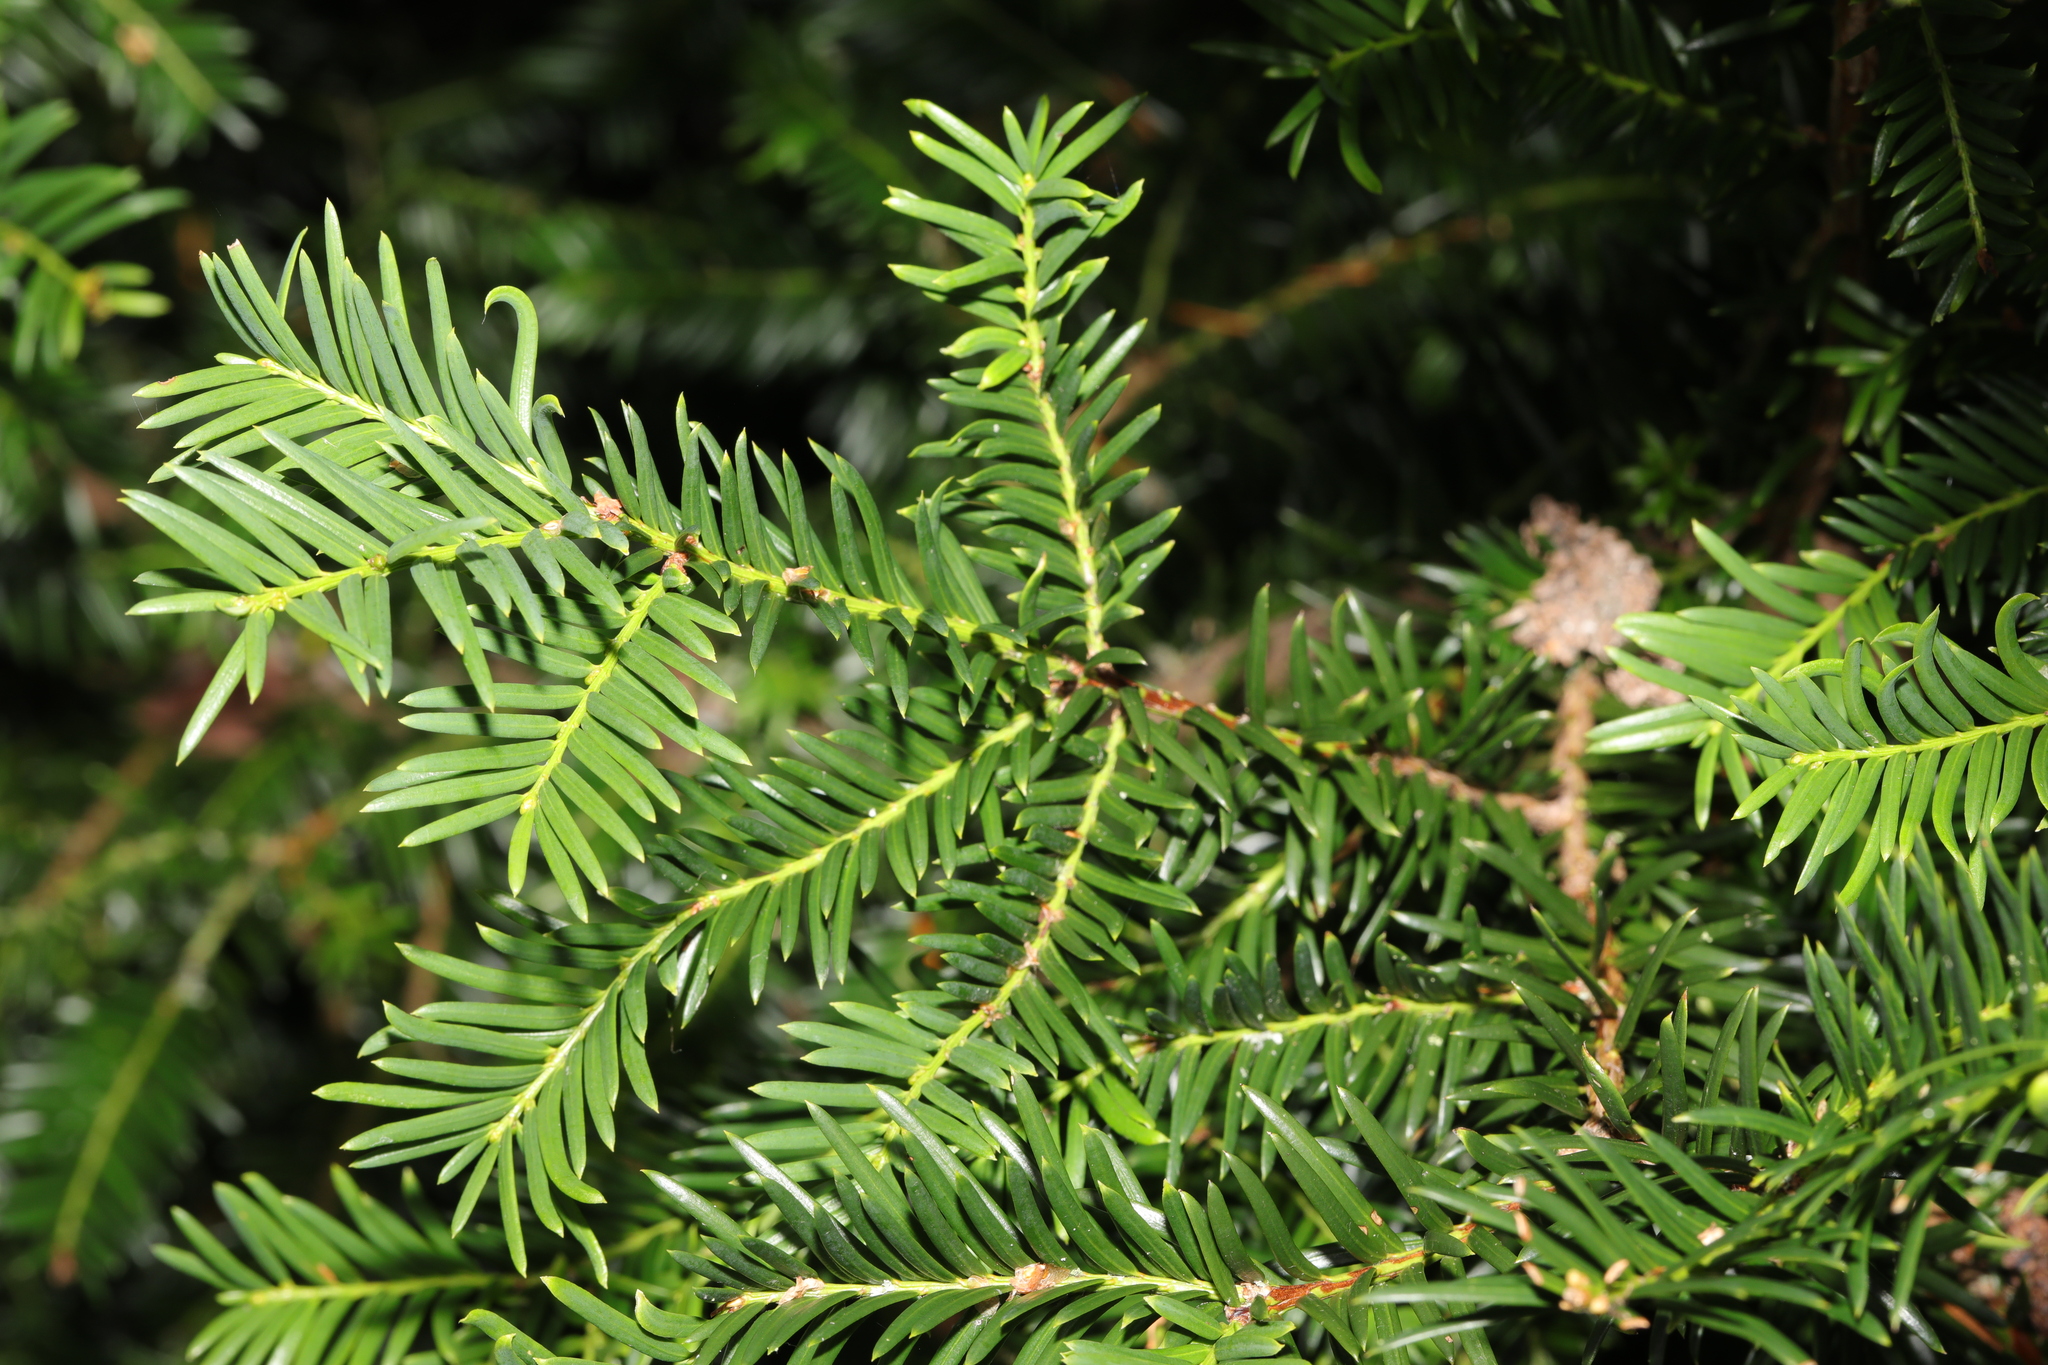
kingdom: Plantae
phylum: Tracheophyta
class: Pinopsida
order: Pinales
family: Taxaceae
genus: Taxus
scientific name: Taxus baccata
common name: Yew
